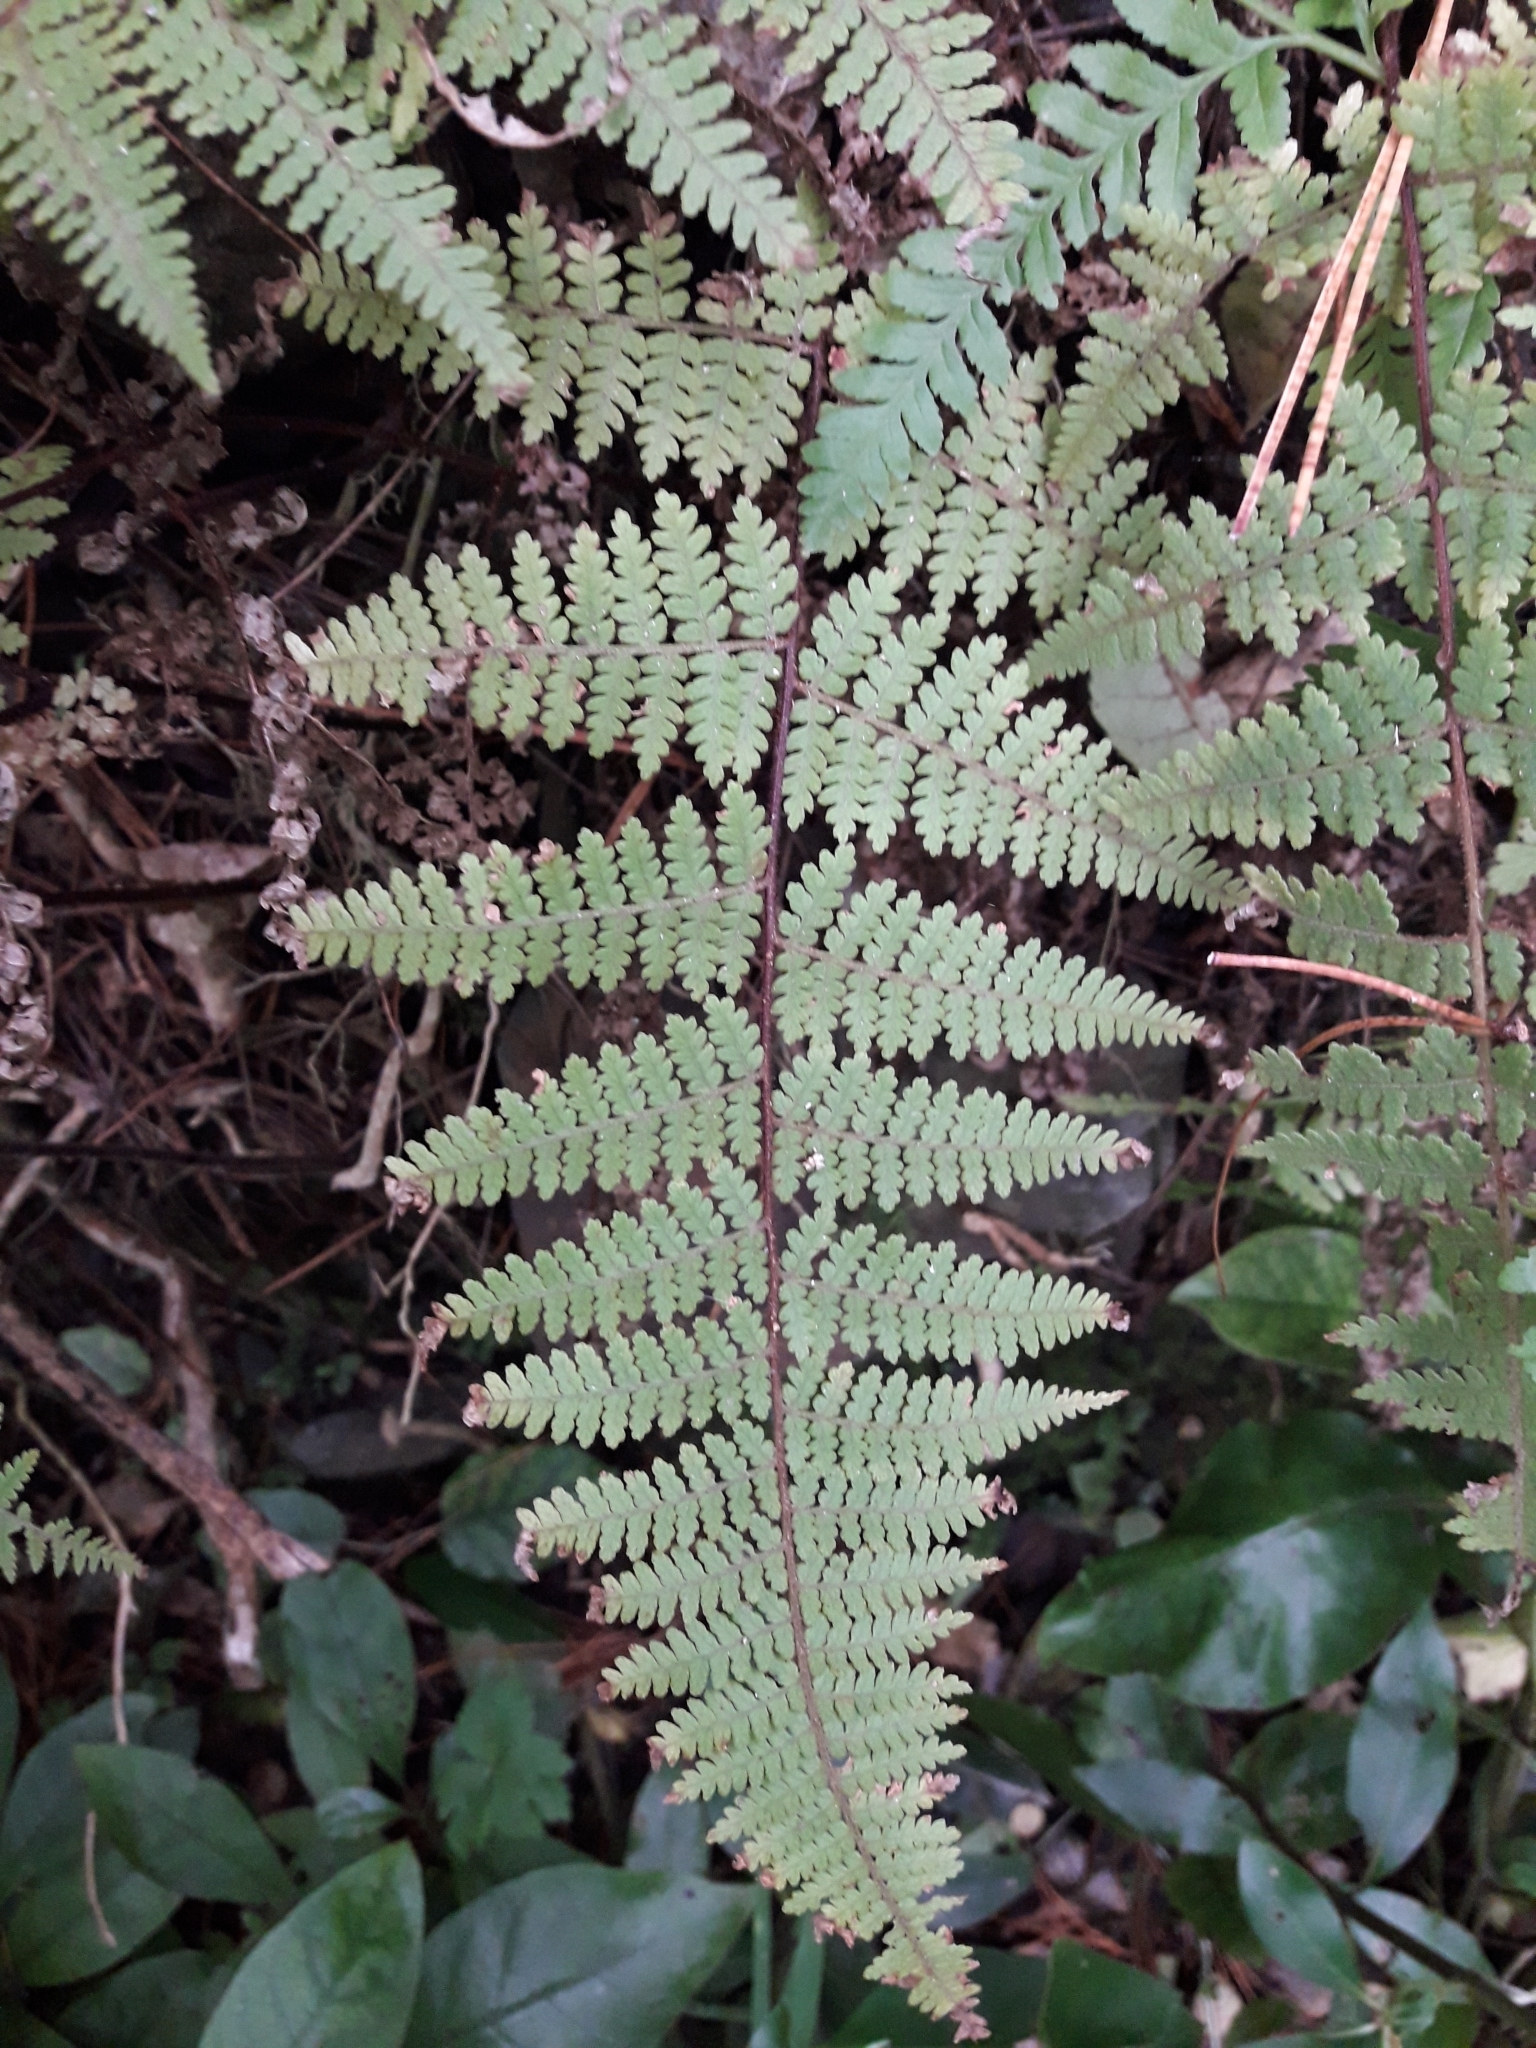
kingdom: Plantae
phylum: Tracheophyta
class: Polypodiopsida
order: Polypodiales
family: Dennstaedtiaceae
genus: Hypolepis
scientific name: Hypolepis rugosula
